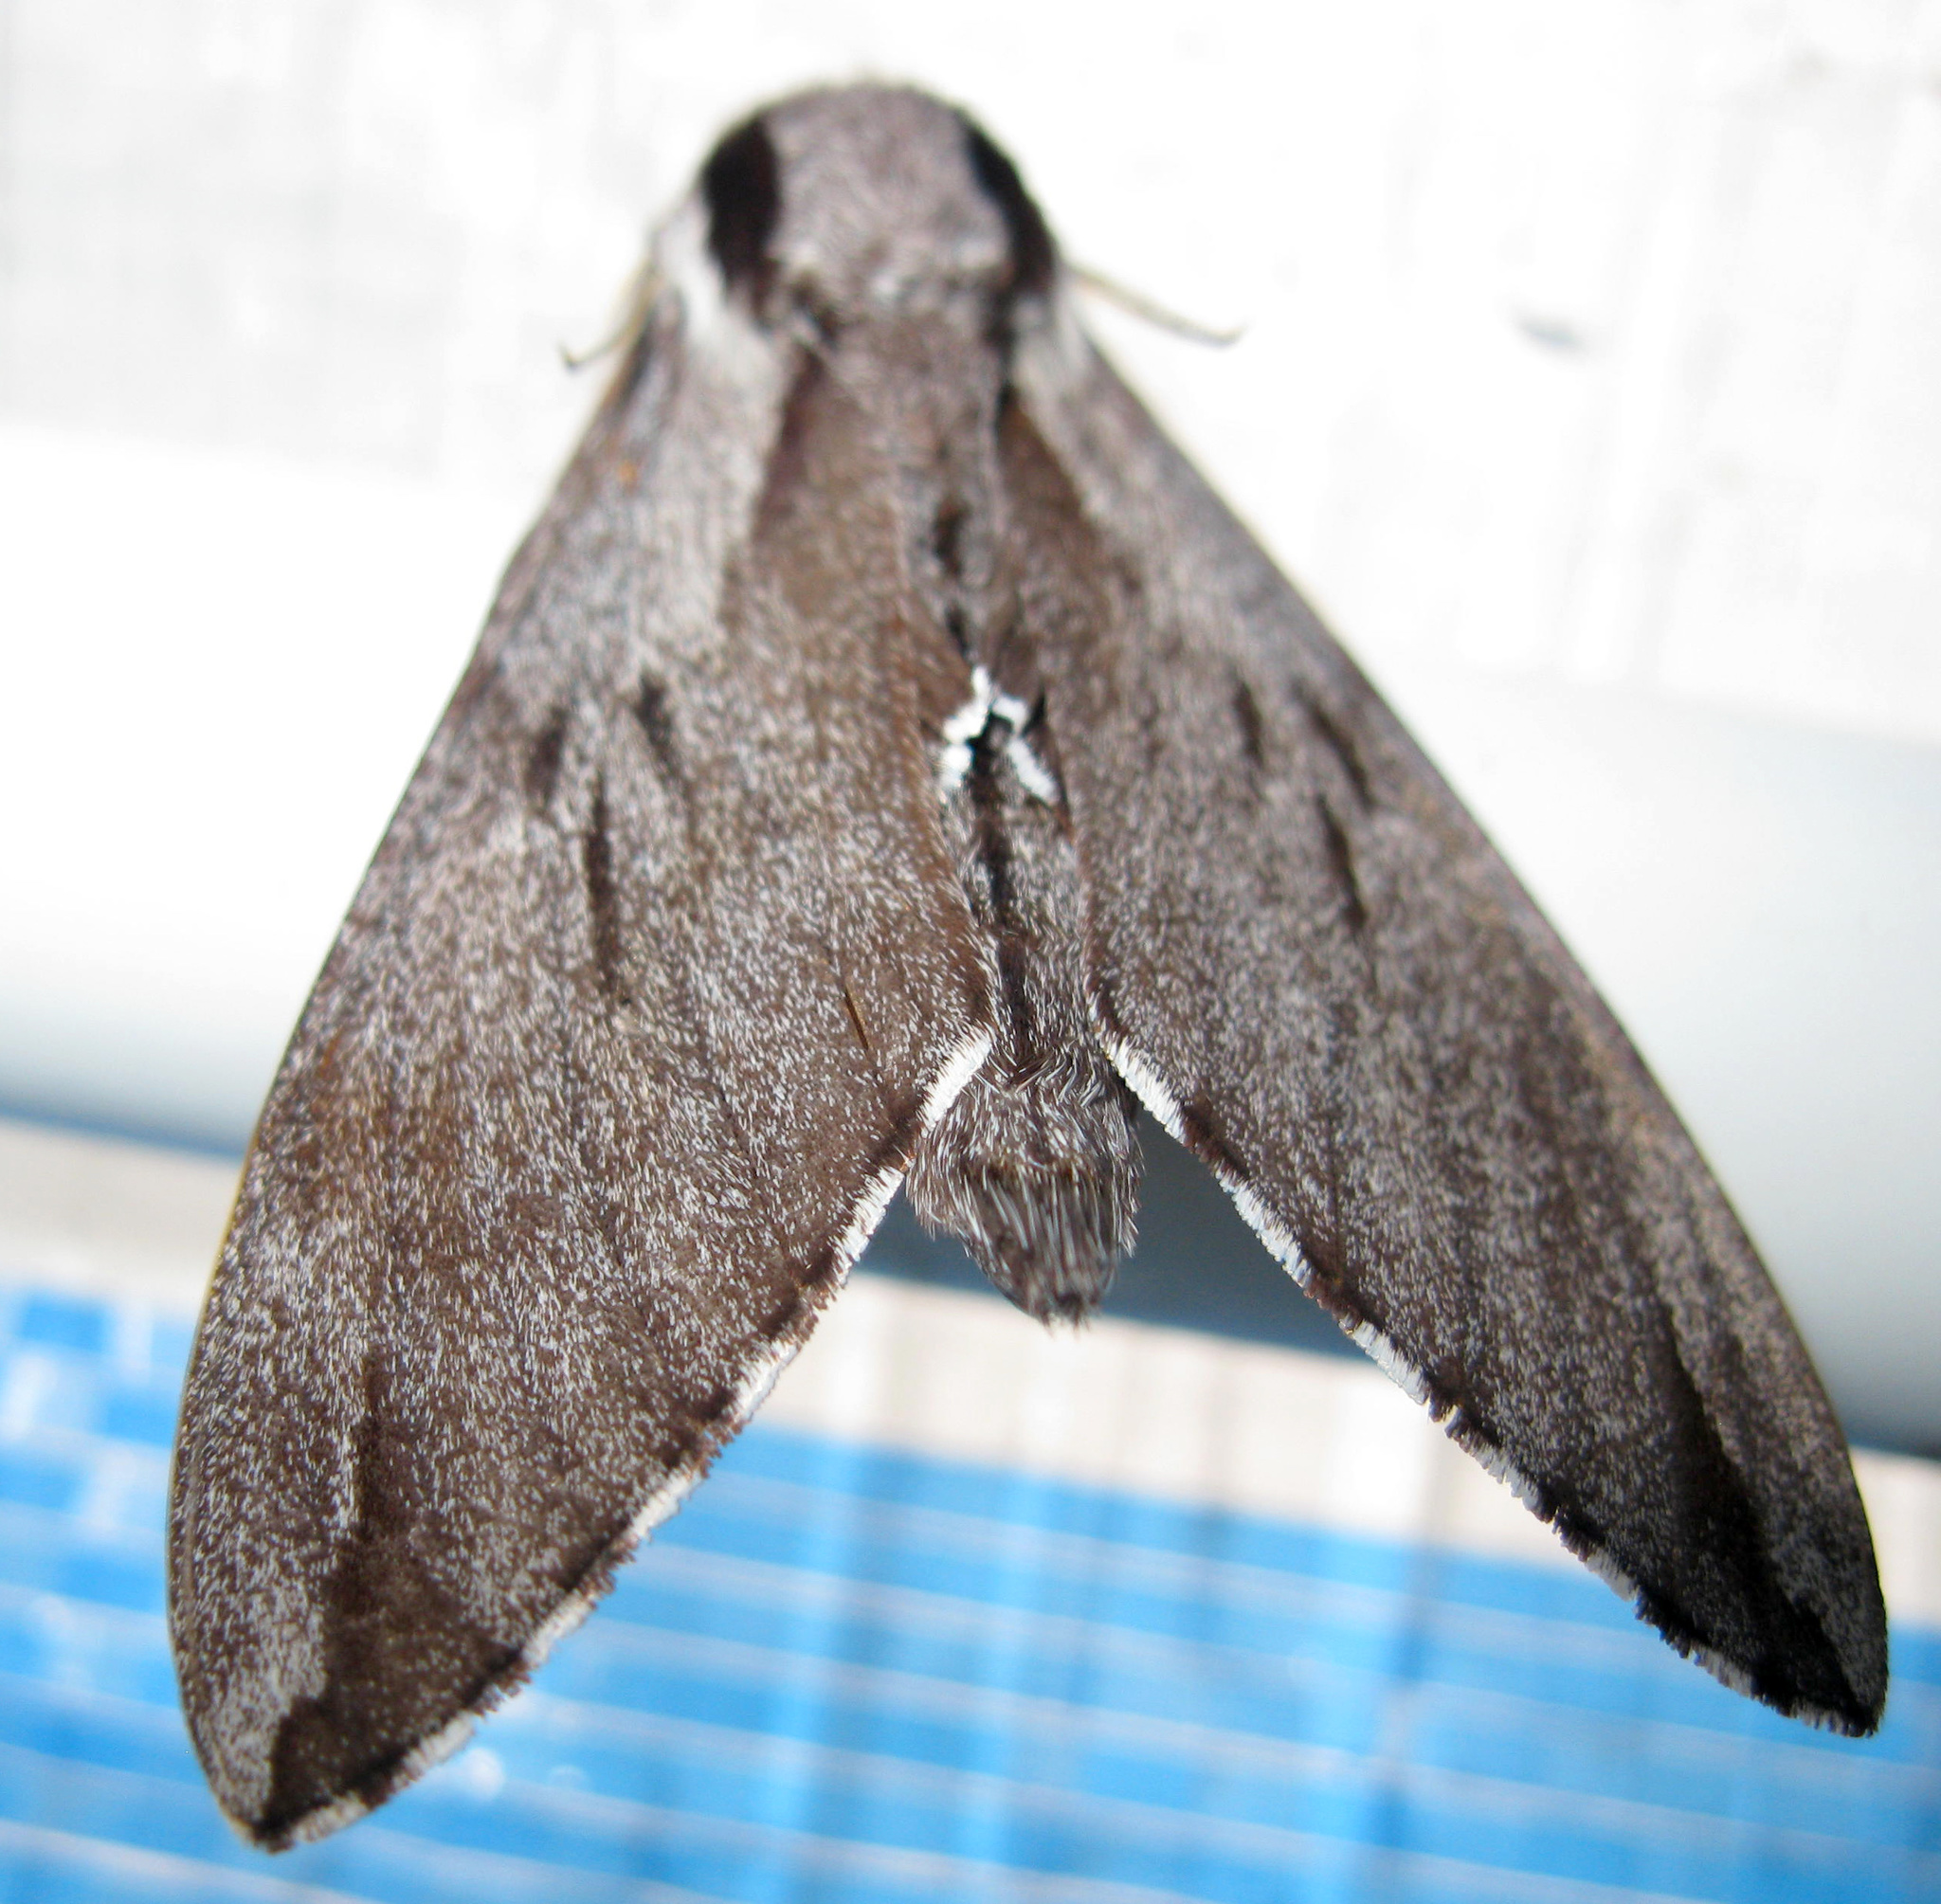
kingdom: Animalia
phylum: Arthropoda
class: Insecta
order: Lepidoptera
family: Sphingidae
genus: Sphinx
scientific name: Sphinx pinastri
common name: Pine hawk-moth
